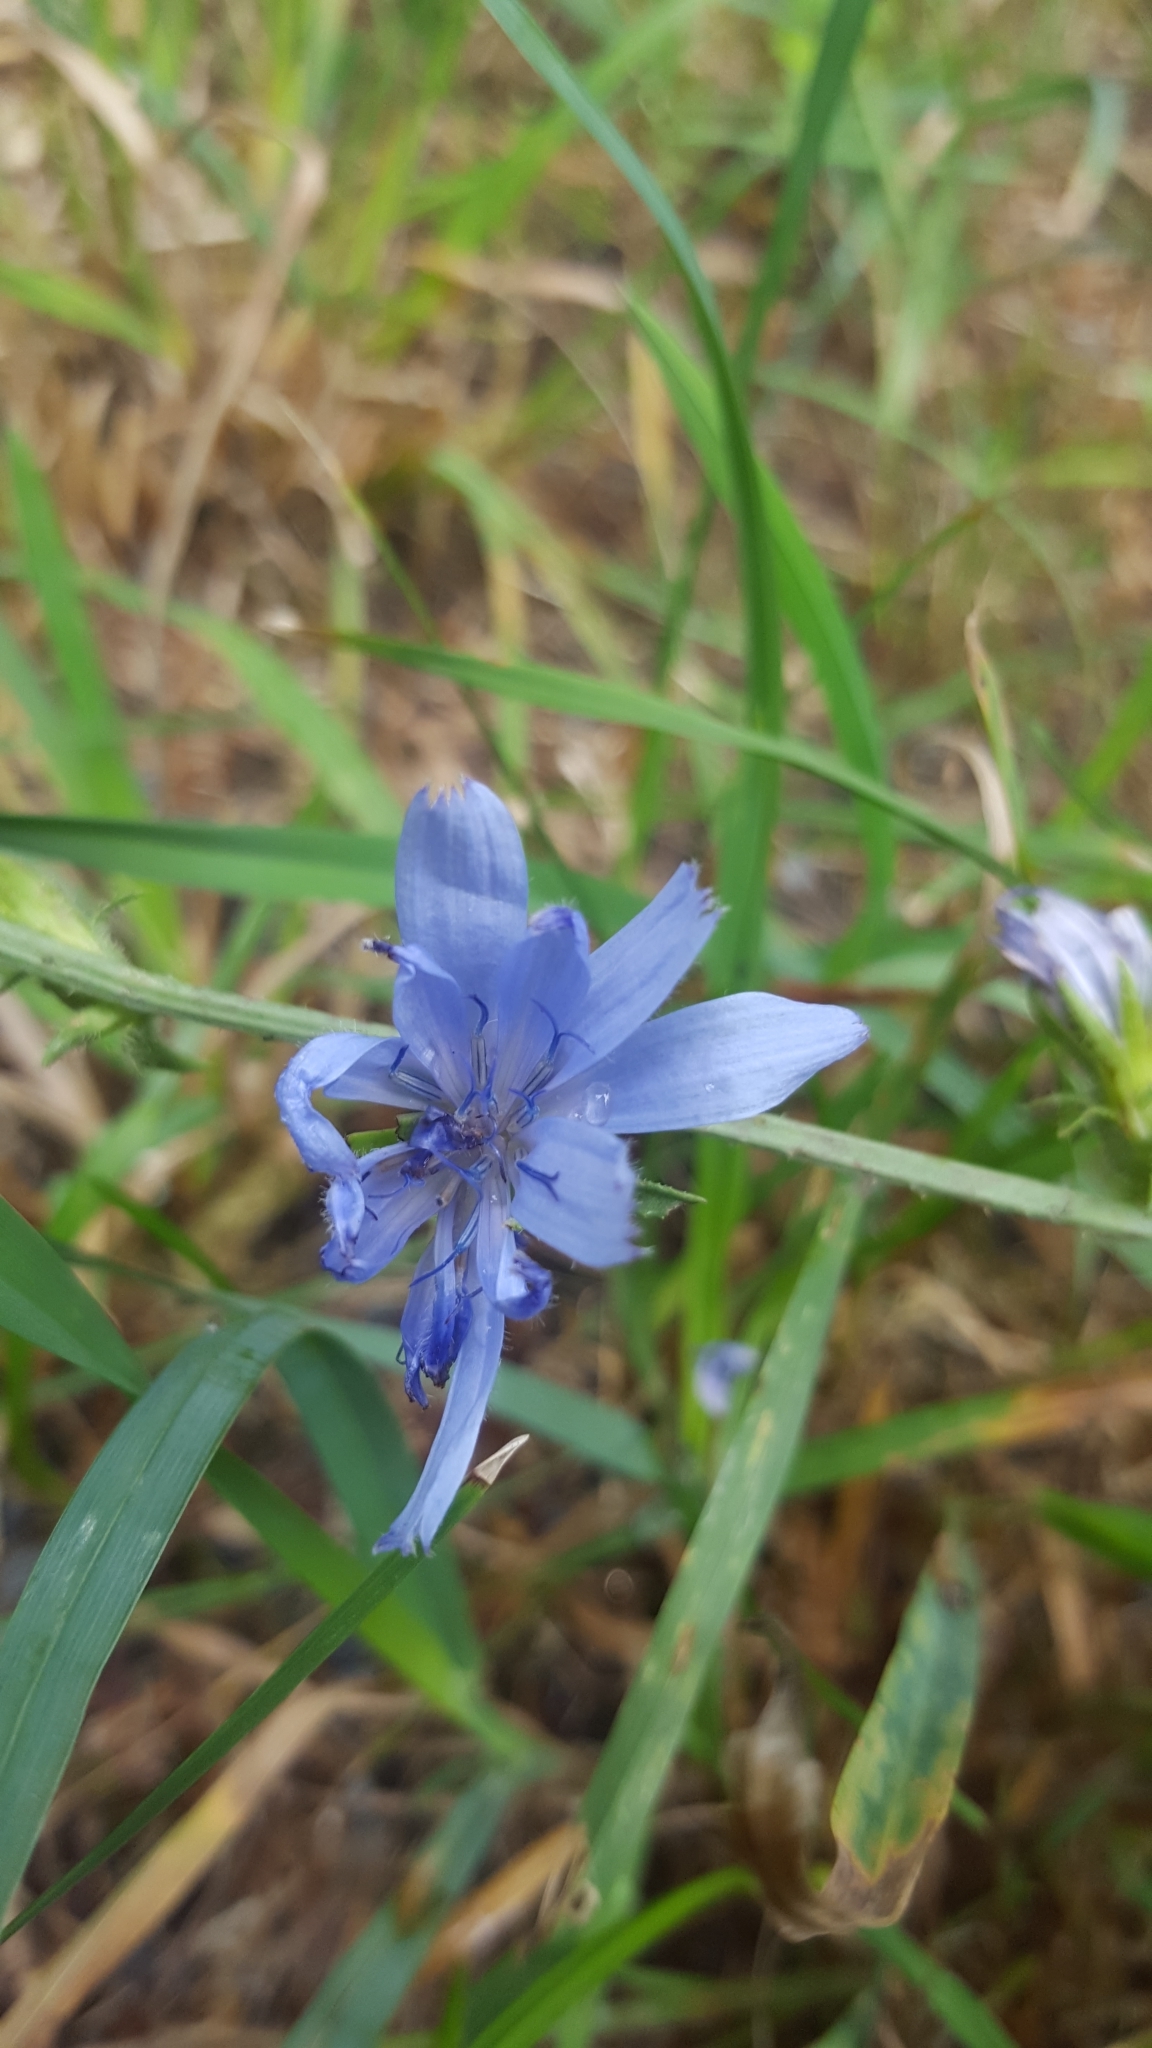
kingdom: Plantae
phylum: Tracheophyta
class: Magnoliopsida
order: Asterales
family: Asteraceae
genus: Cichorium
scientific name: Cichorium intybus
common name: Chicory
